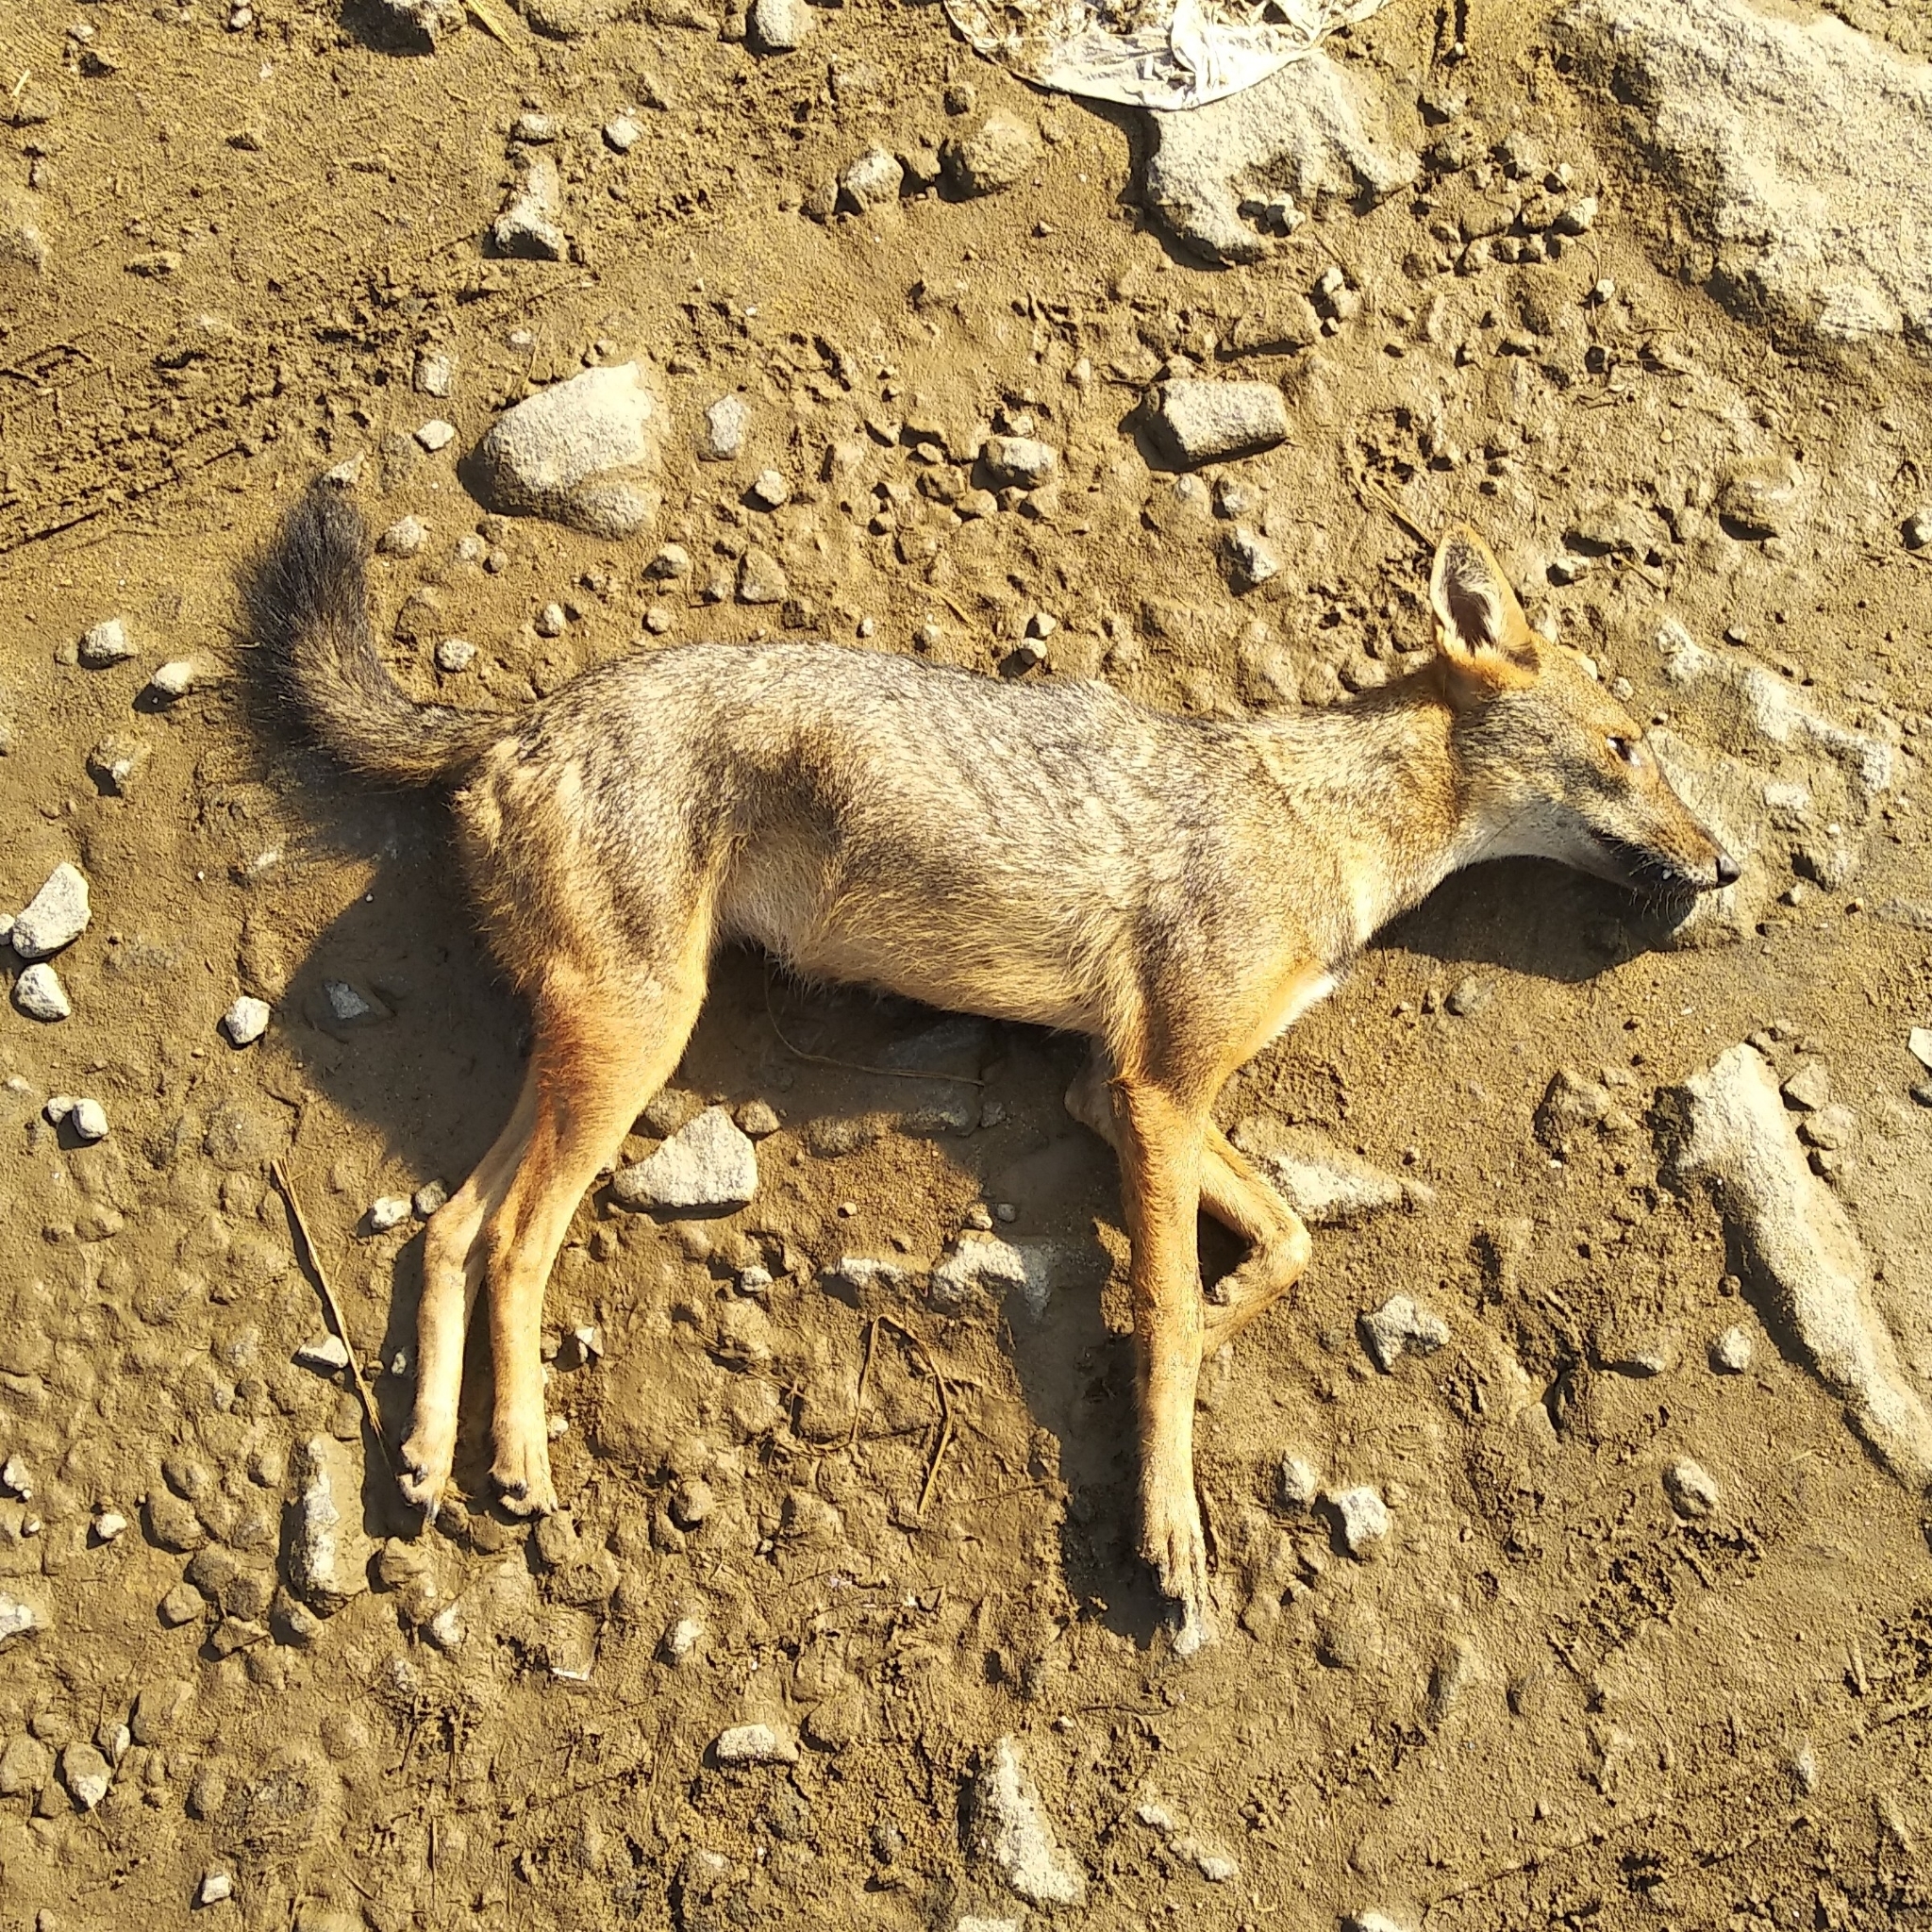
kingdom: Animalia
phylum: Chordata
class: Mammalia
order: Carnivora
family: Canidae
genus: Canis
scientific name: Canis aureus
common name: Golden jackal
